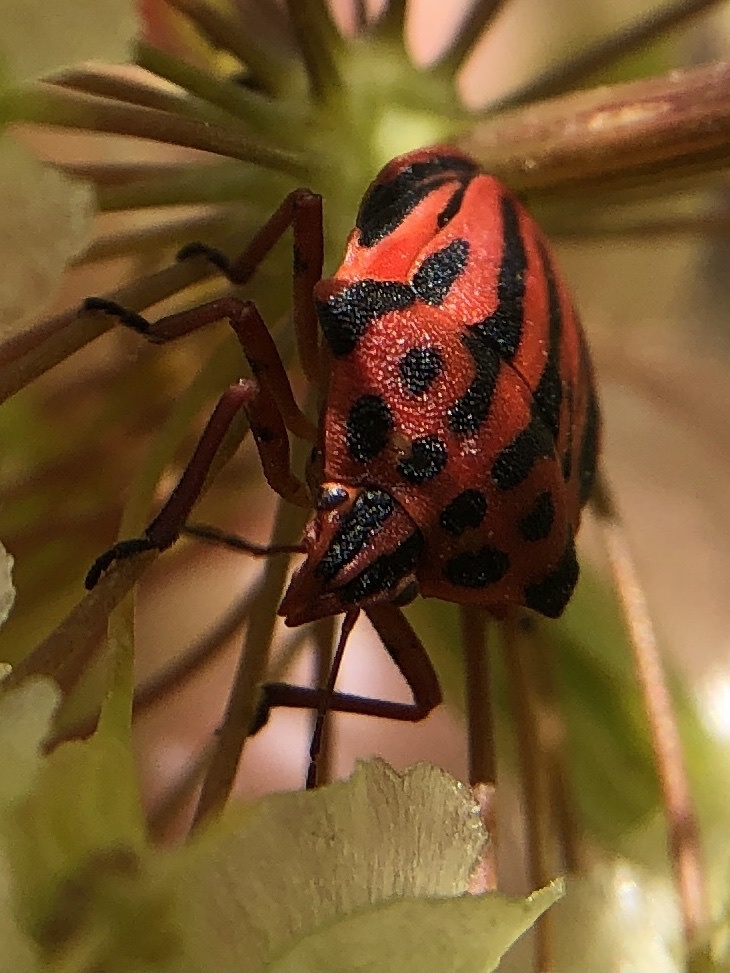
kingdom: Animalia
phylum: Arthropoda
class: Insecta
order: Hemiptera
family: Pentatomidae
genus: Graphosoma
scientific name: Graphosoma semipunctatum
